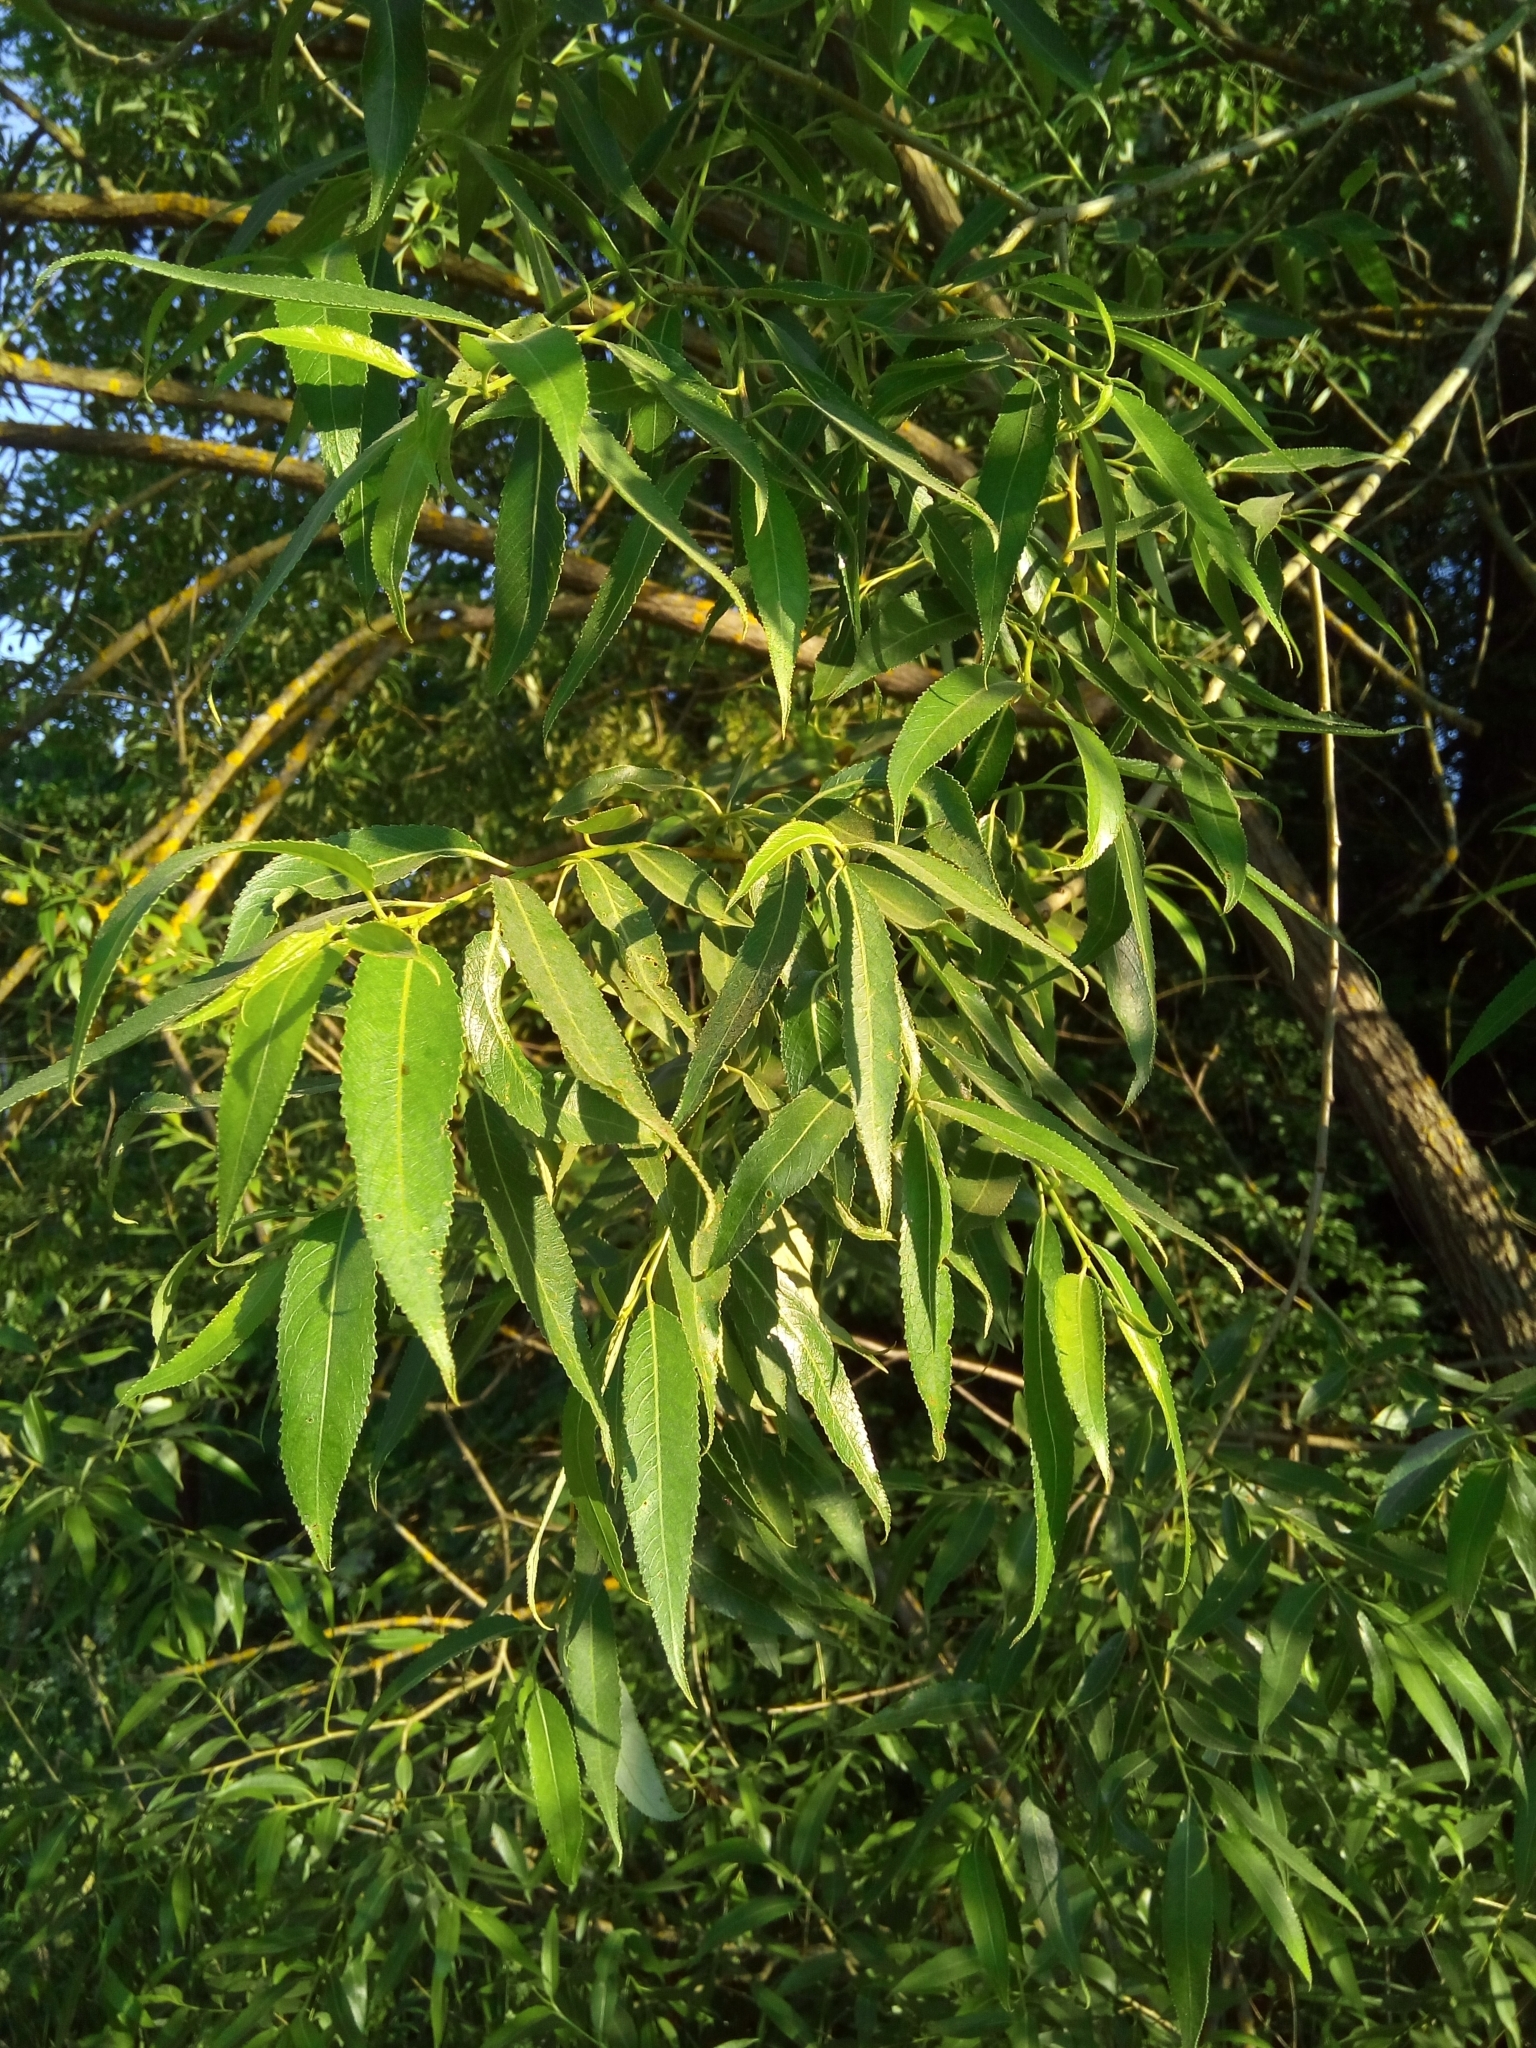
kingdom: Plantae
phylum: Tracheophyta
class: Magnoliopsida
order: Malpighiales
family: Salicaceae
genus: Salix
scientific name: Salix alba
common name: White willow
